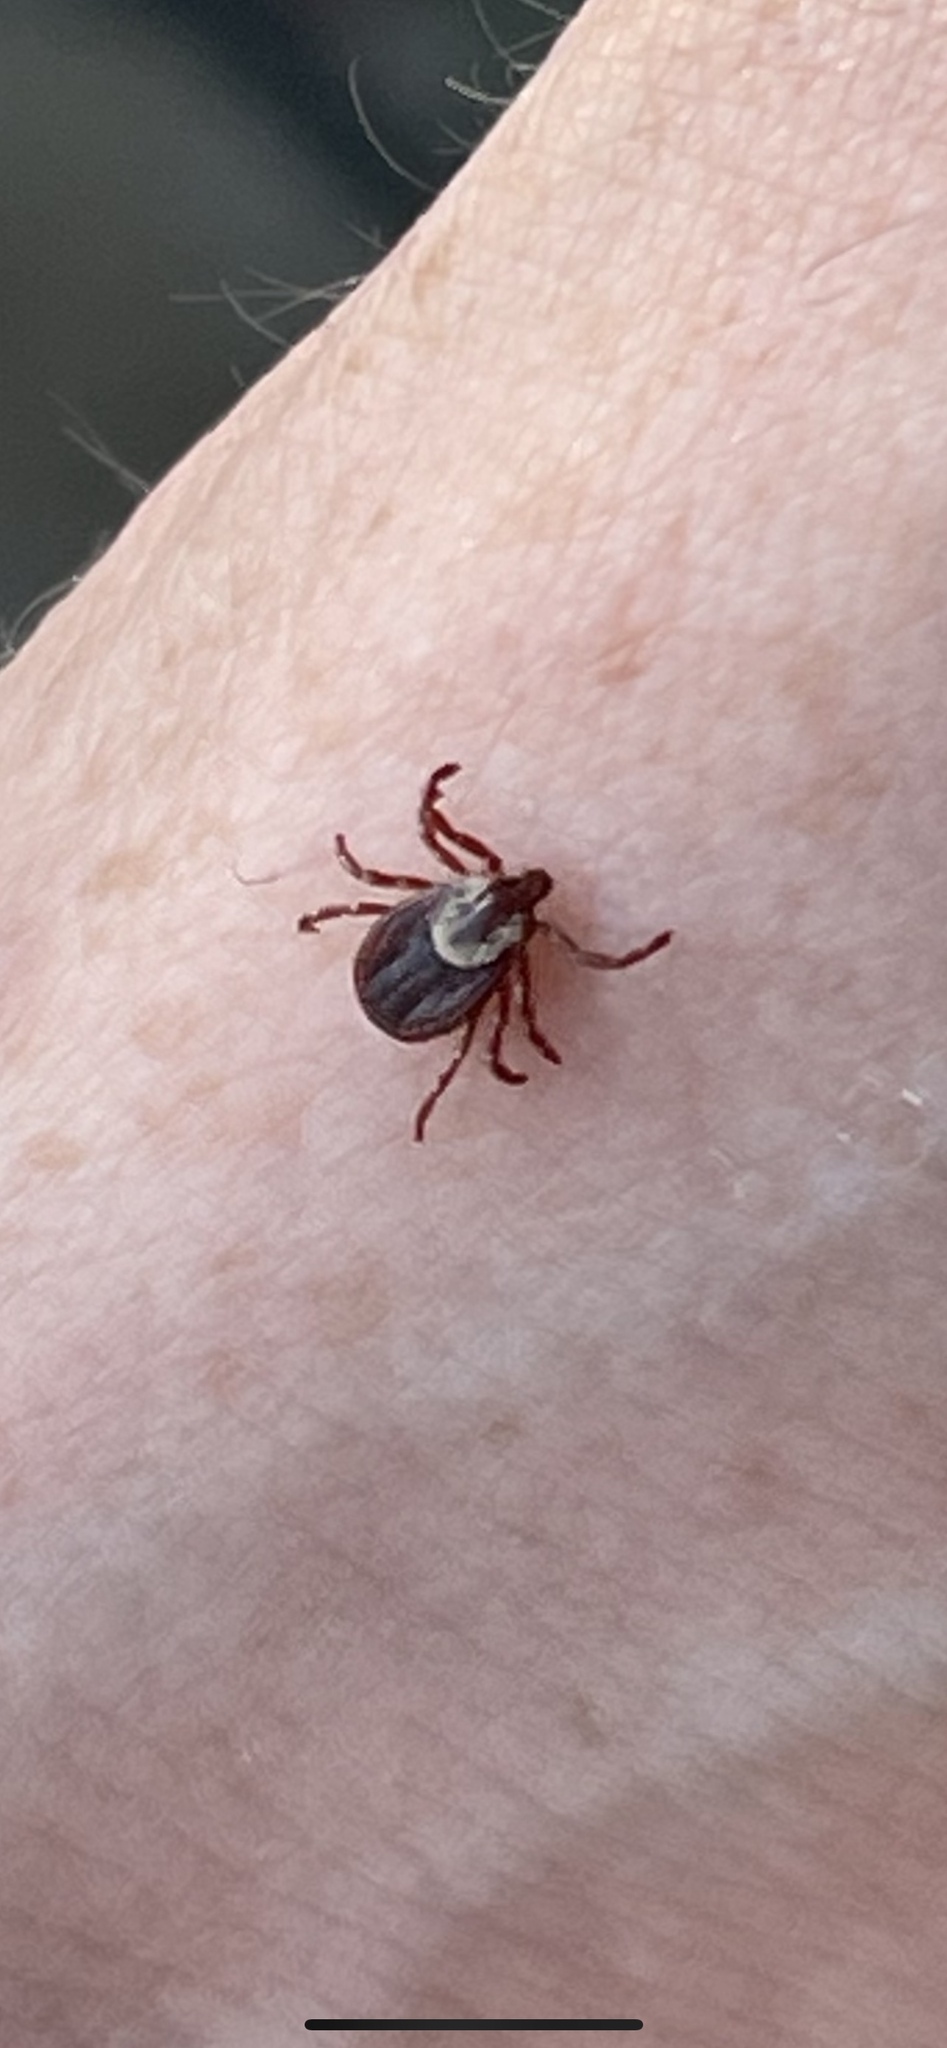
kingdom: Animalia
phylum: Arthropoda
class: Arachnida
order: Ixodida
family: Ixodidae
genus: Dermacentor
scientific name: Dermacentor variabilis
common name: American dog tick
